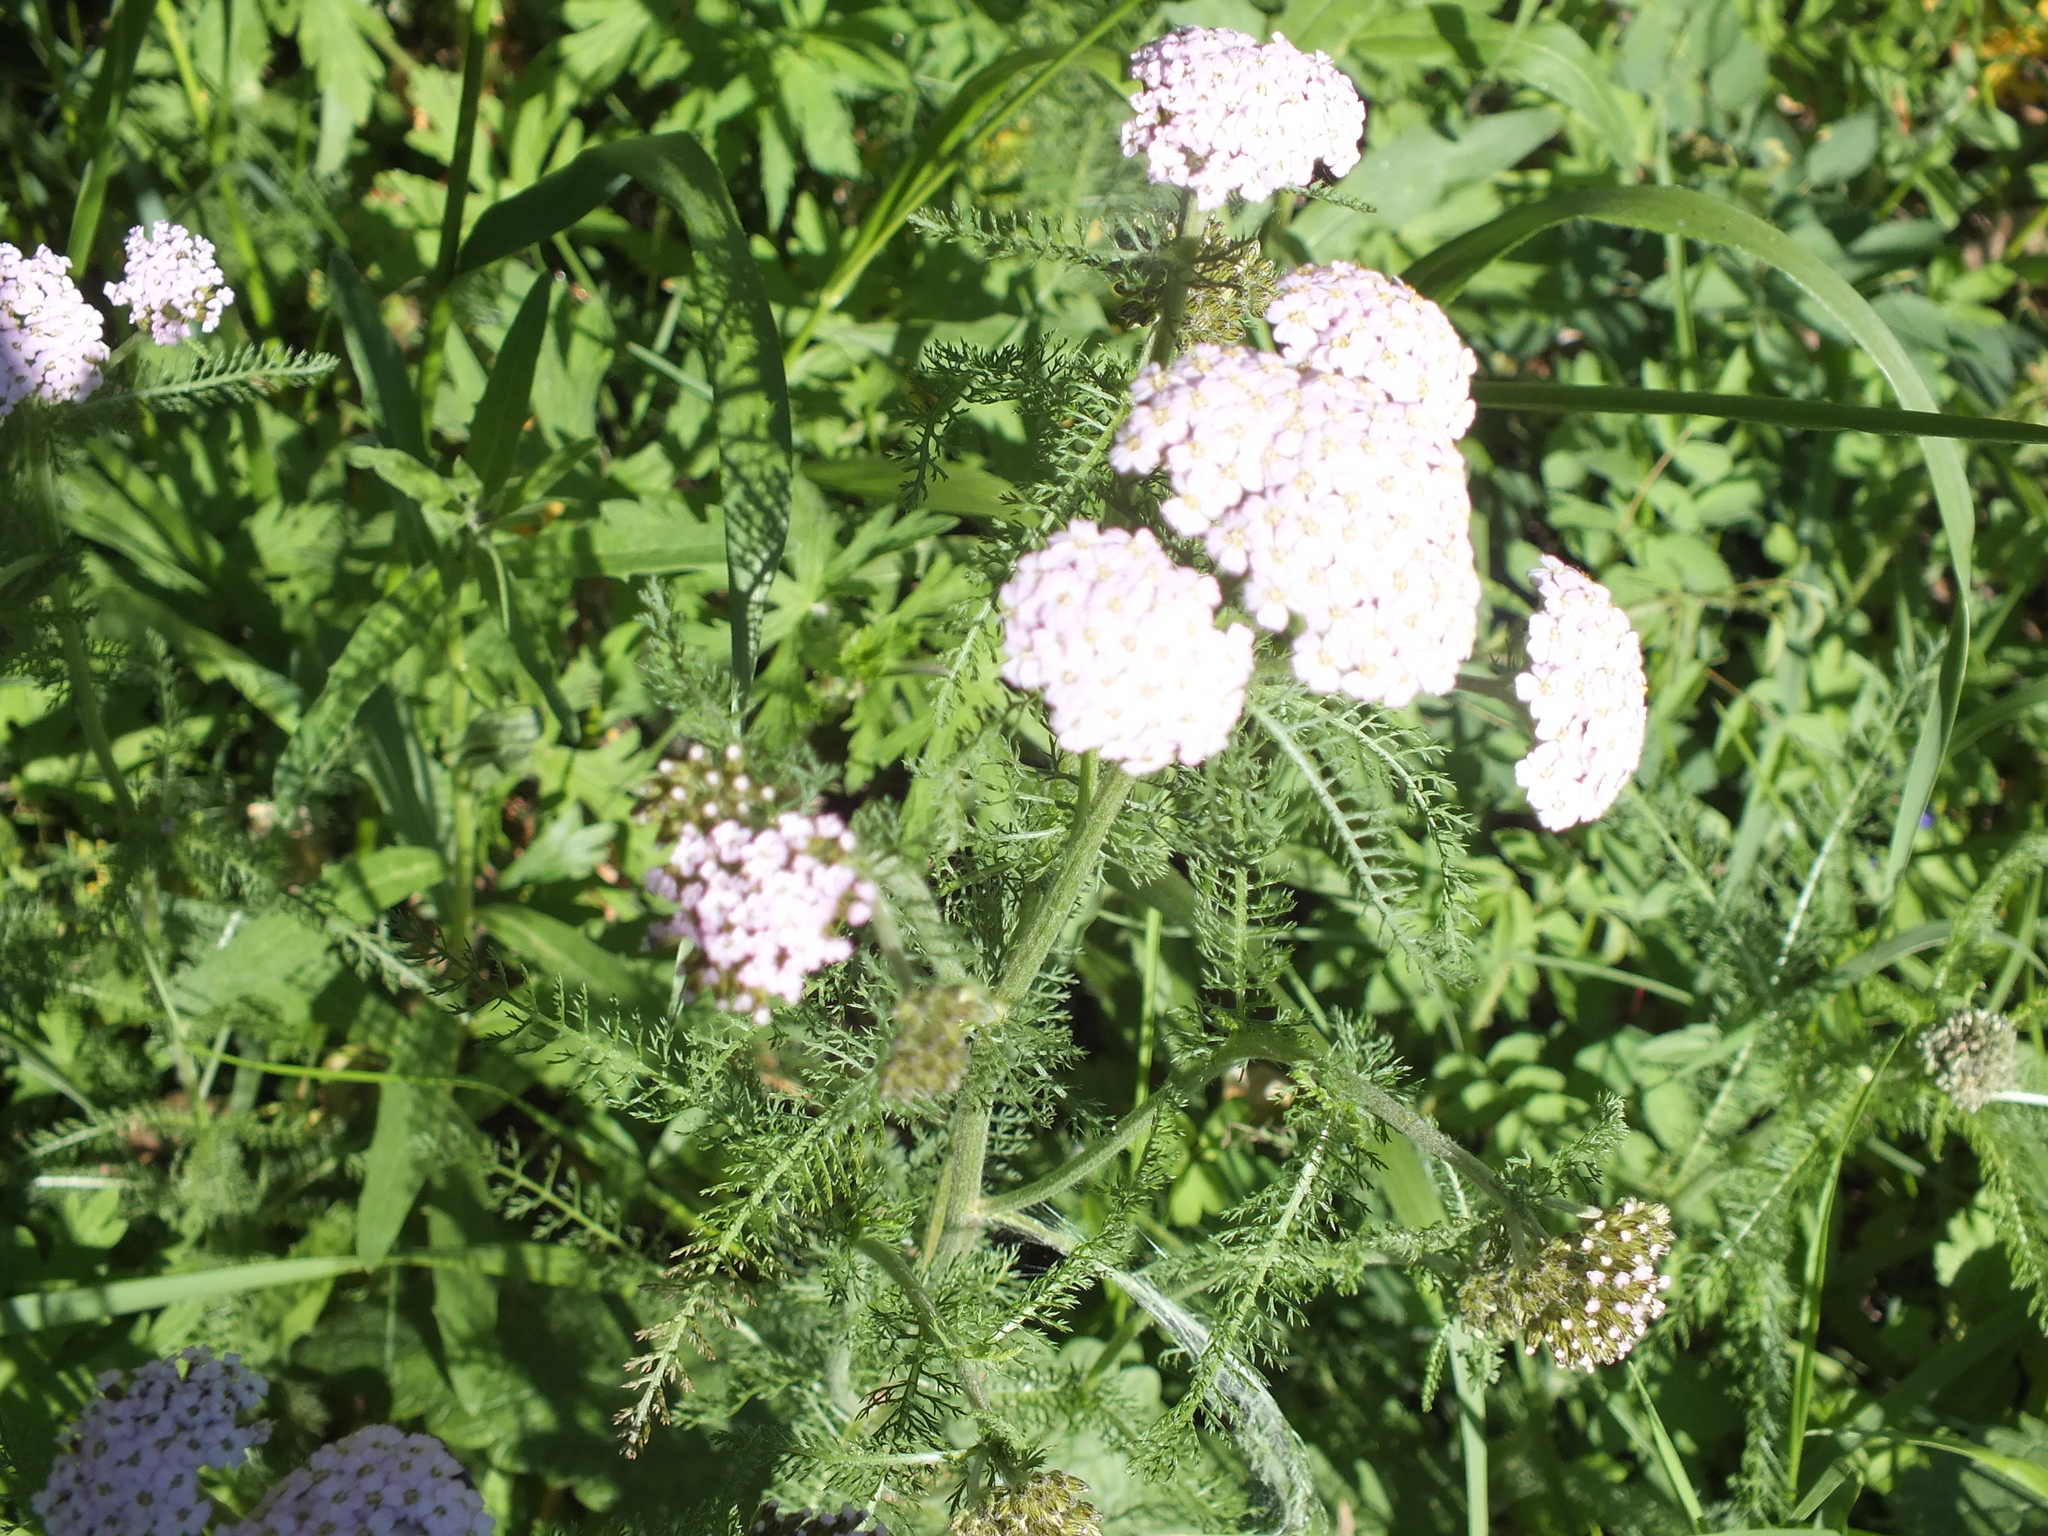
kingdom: Plantae
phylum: Tracheophyta
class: Magnoliopsida
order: Asterales
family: Asteraceae
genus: Achillea
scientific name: Achillea millefolium
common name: Yarrow
